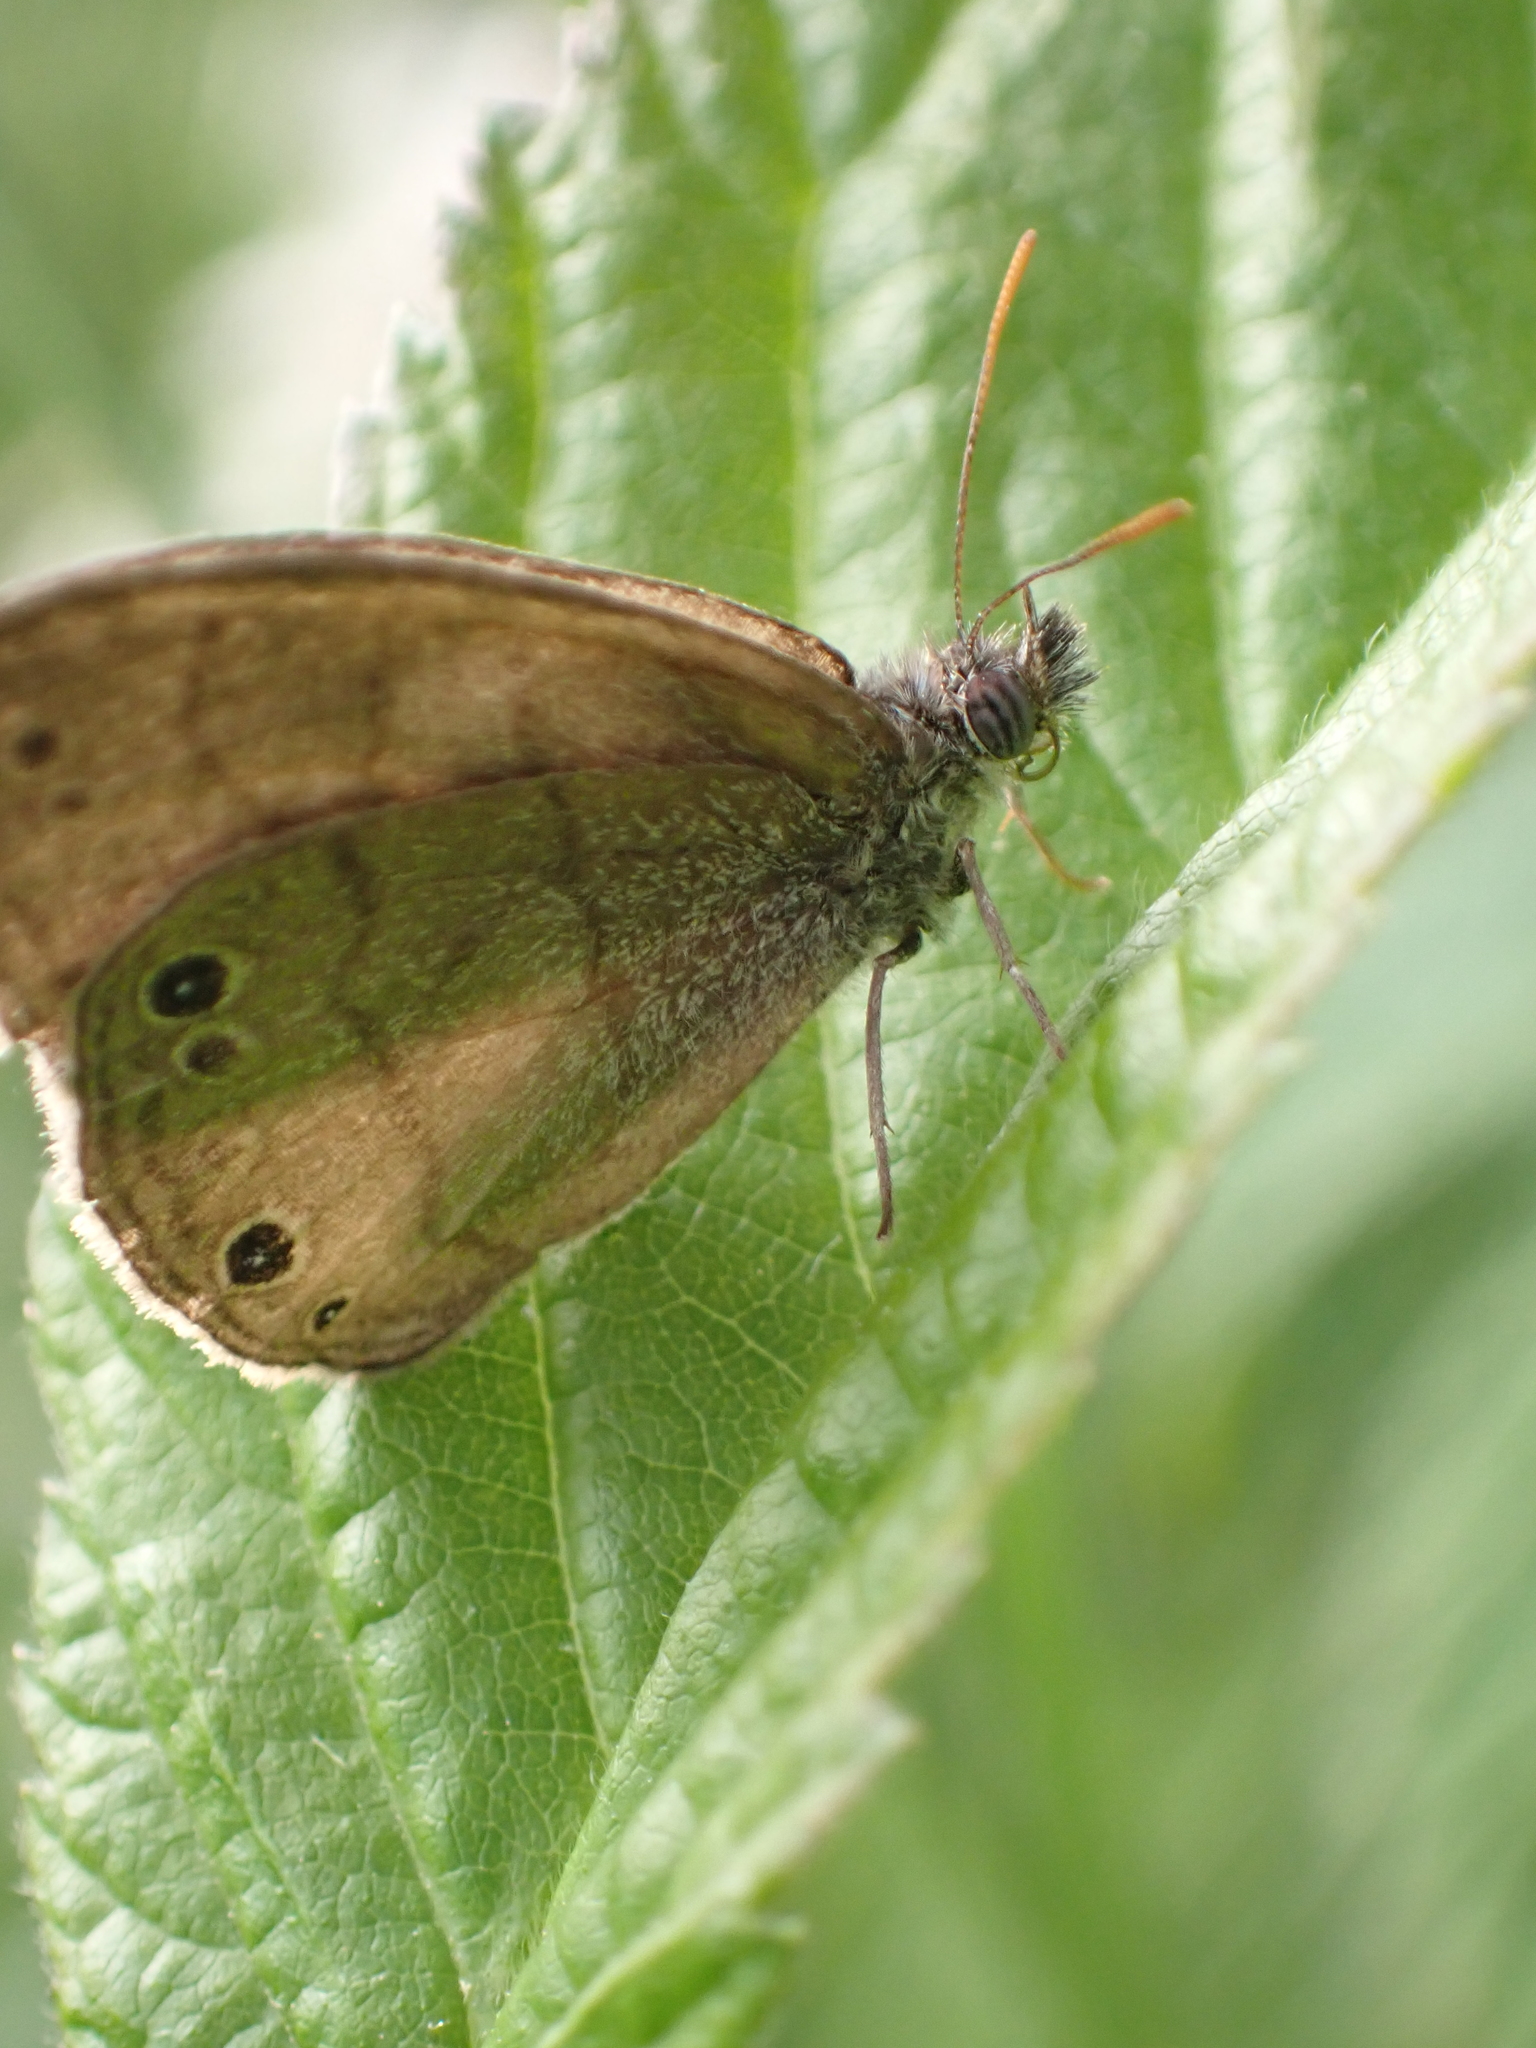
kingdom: Animalia
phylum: Arthropoda
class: Insecta
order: Lepidoptera
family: Nymphalidae
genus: Hermeuptychia
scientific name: Hermeuptychia hermes
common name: Hermes satyr
